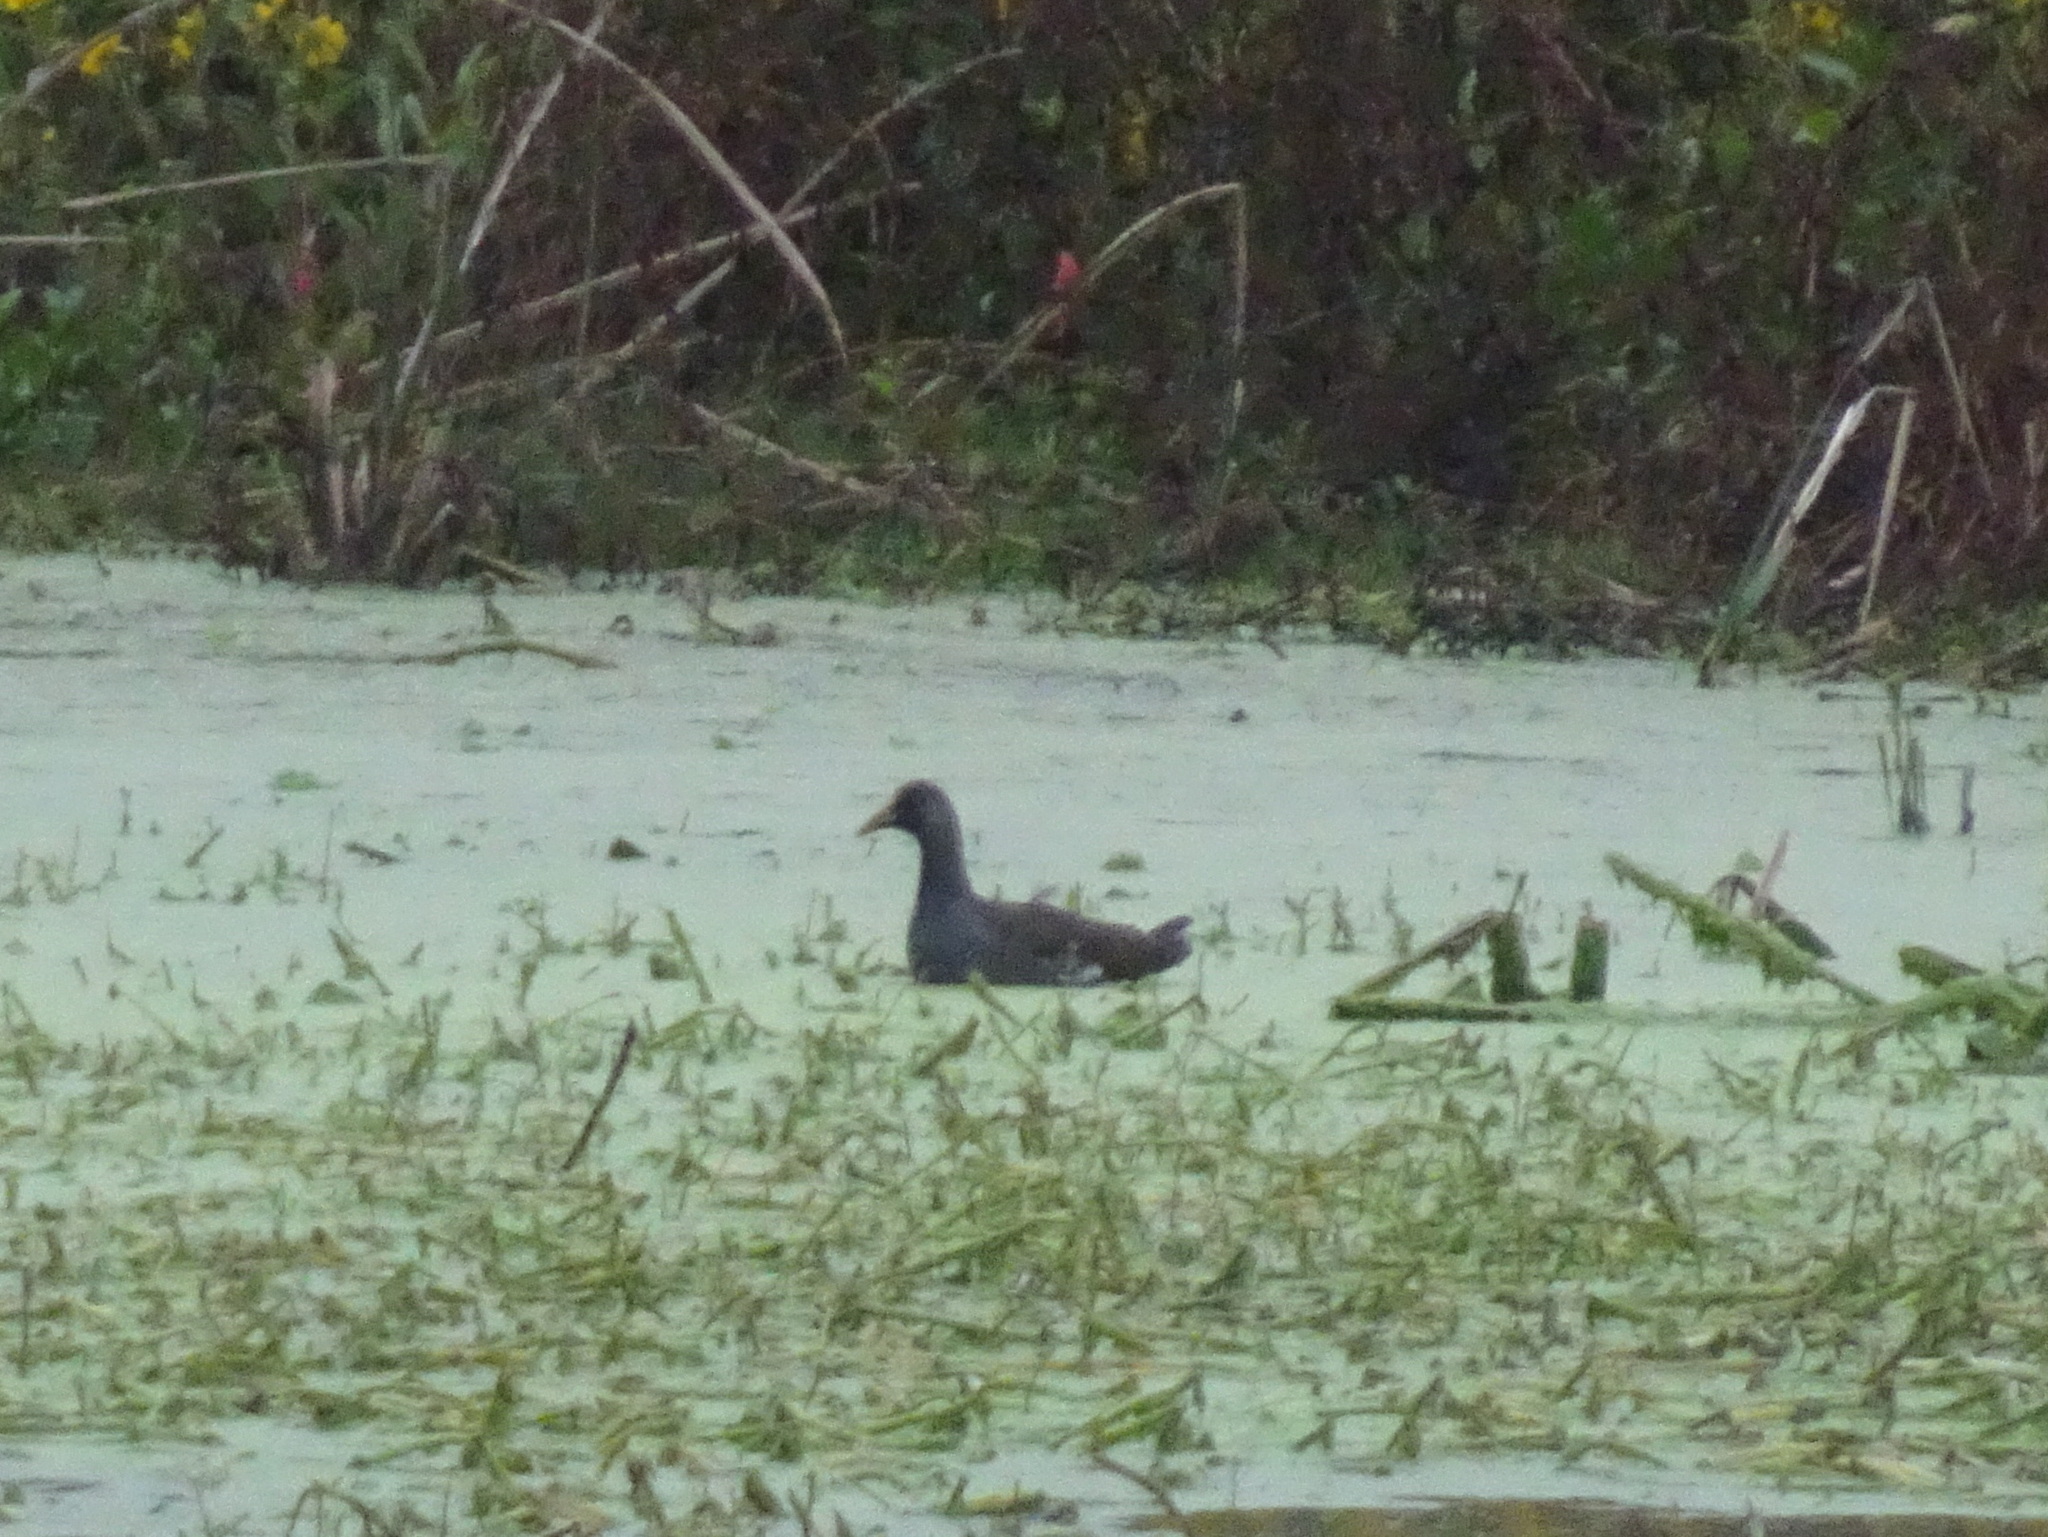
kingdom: Animalia
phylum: Chordata
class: Aves
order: Gruiformes
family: Rallidae
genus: Gallinula
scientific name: Gallinula chloropus
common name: Common moorhen
